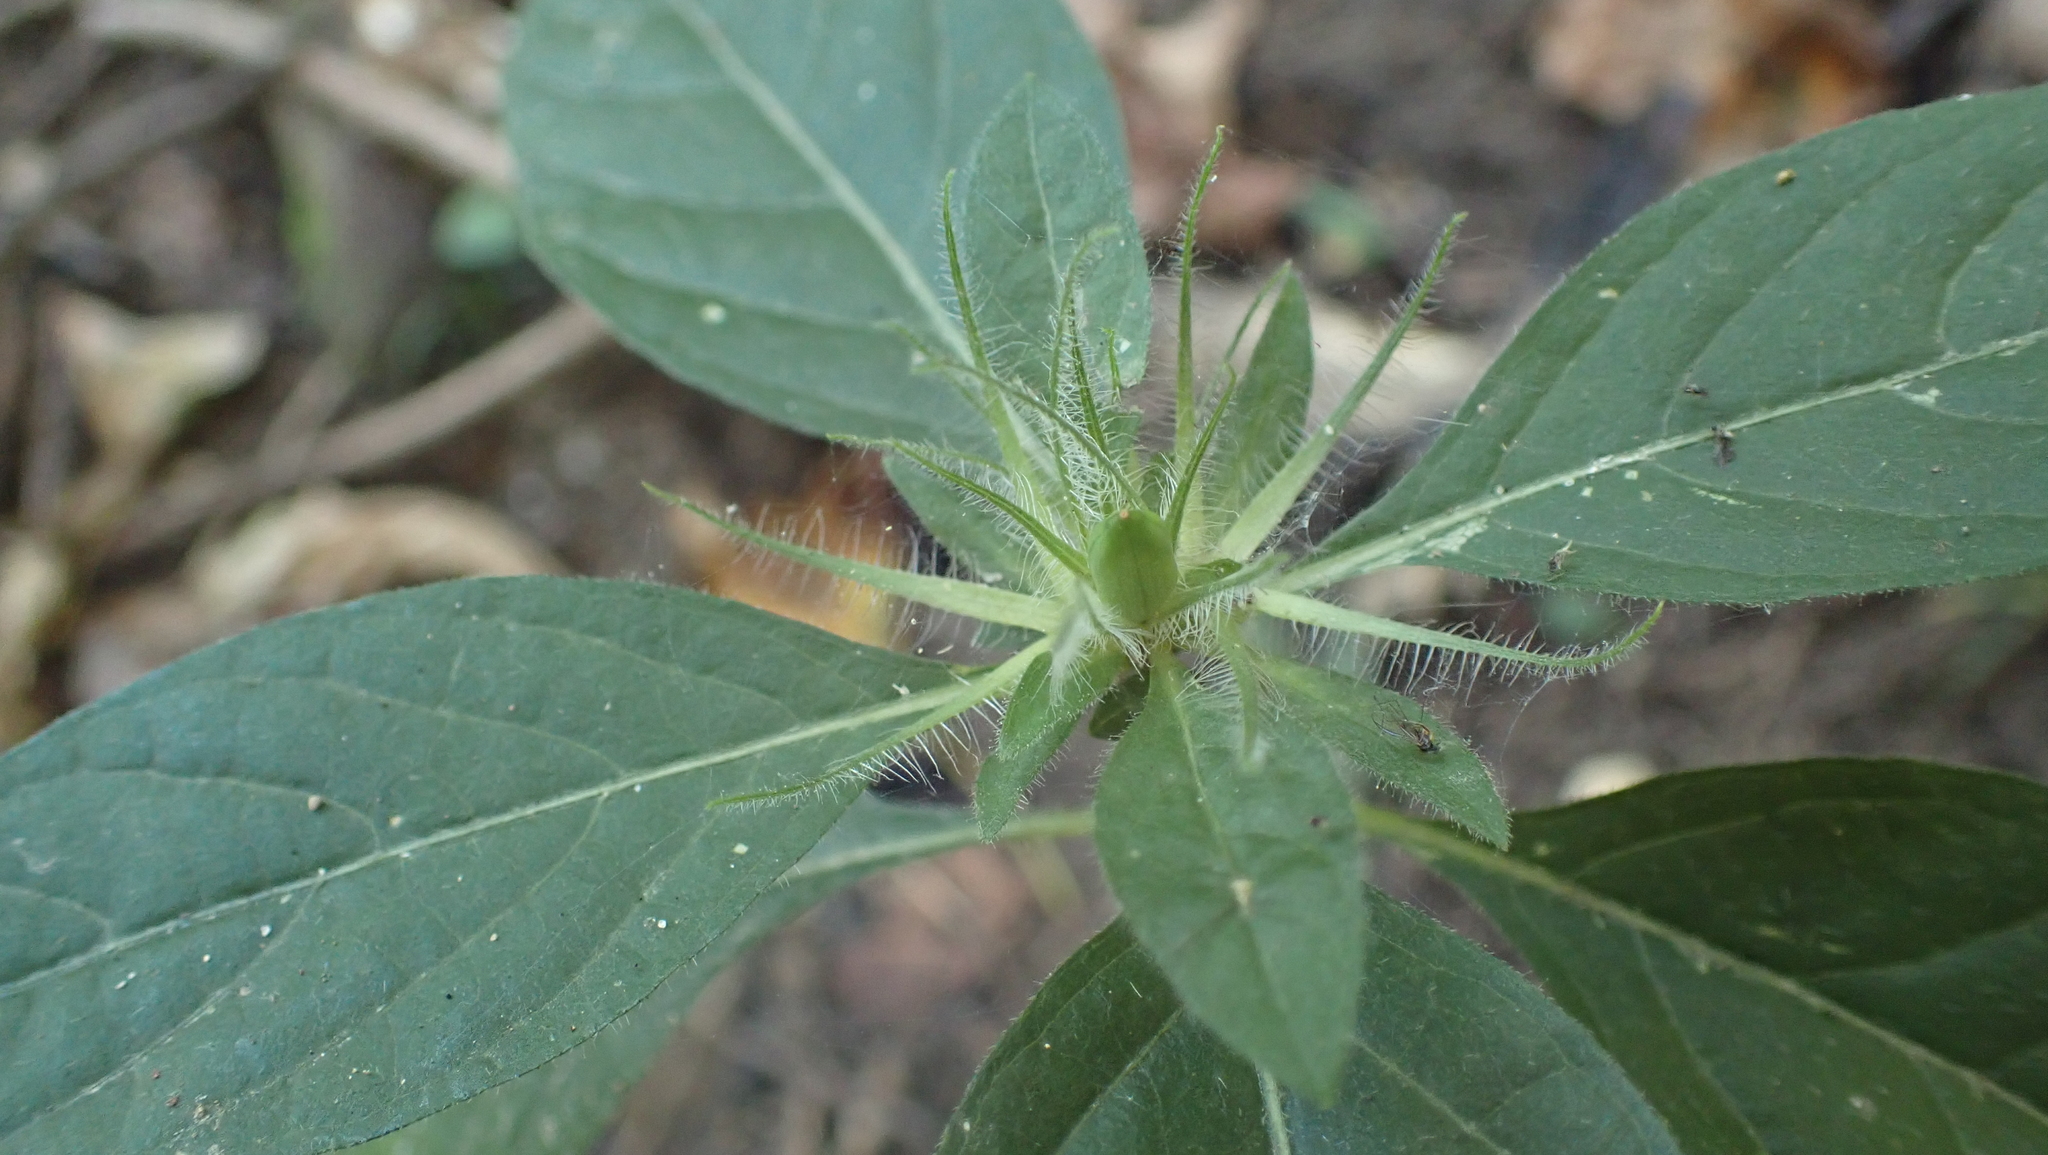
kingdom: Plantae
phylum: Tracheophyta
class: Magnoliopsida
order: Lamiales
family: Acanthaceae
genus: Ruellia
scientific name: Ruellia caroliniensis
